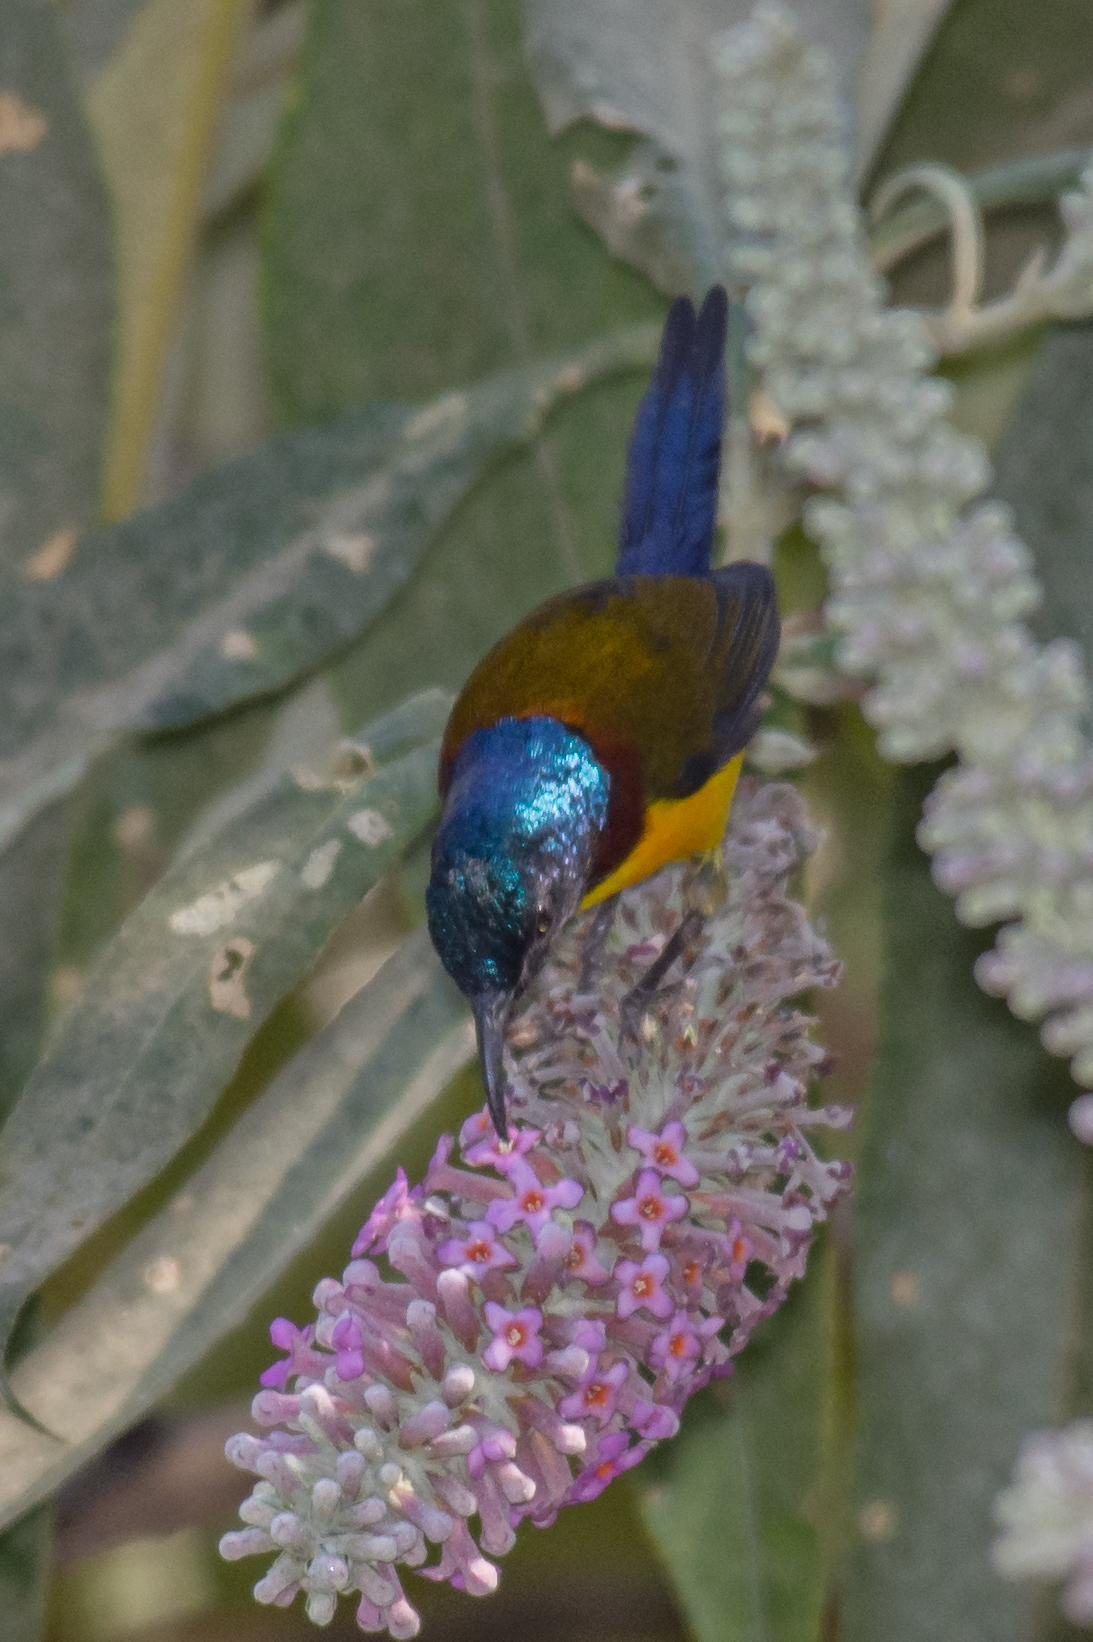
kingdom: Animalia
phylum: Chordata
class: Aves
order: Passeriformes
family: Nectariniidae
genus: Aethopyga
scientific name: Aethopyga nipalensis
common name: Green-tailed sunbird
